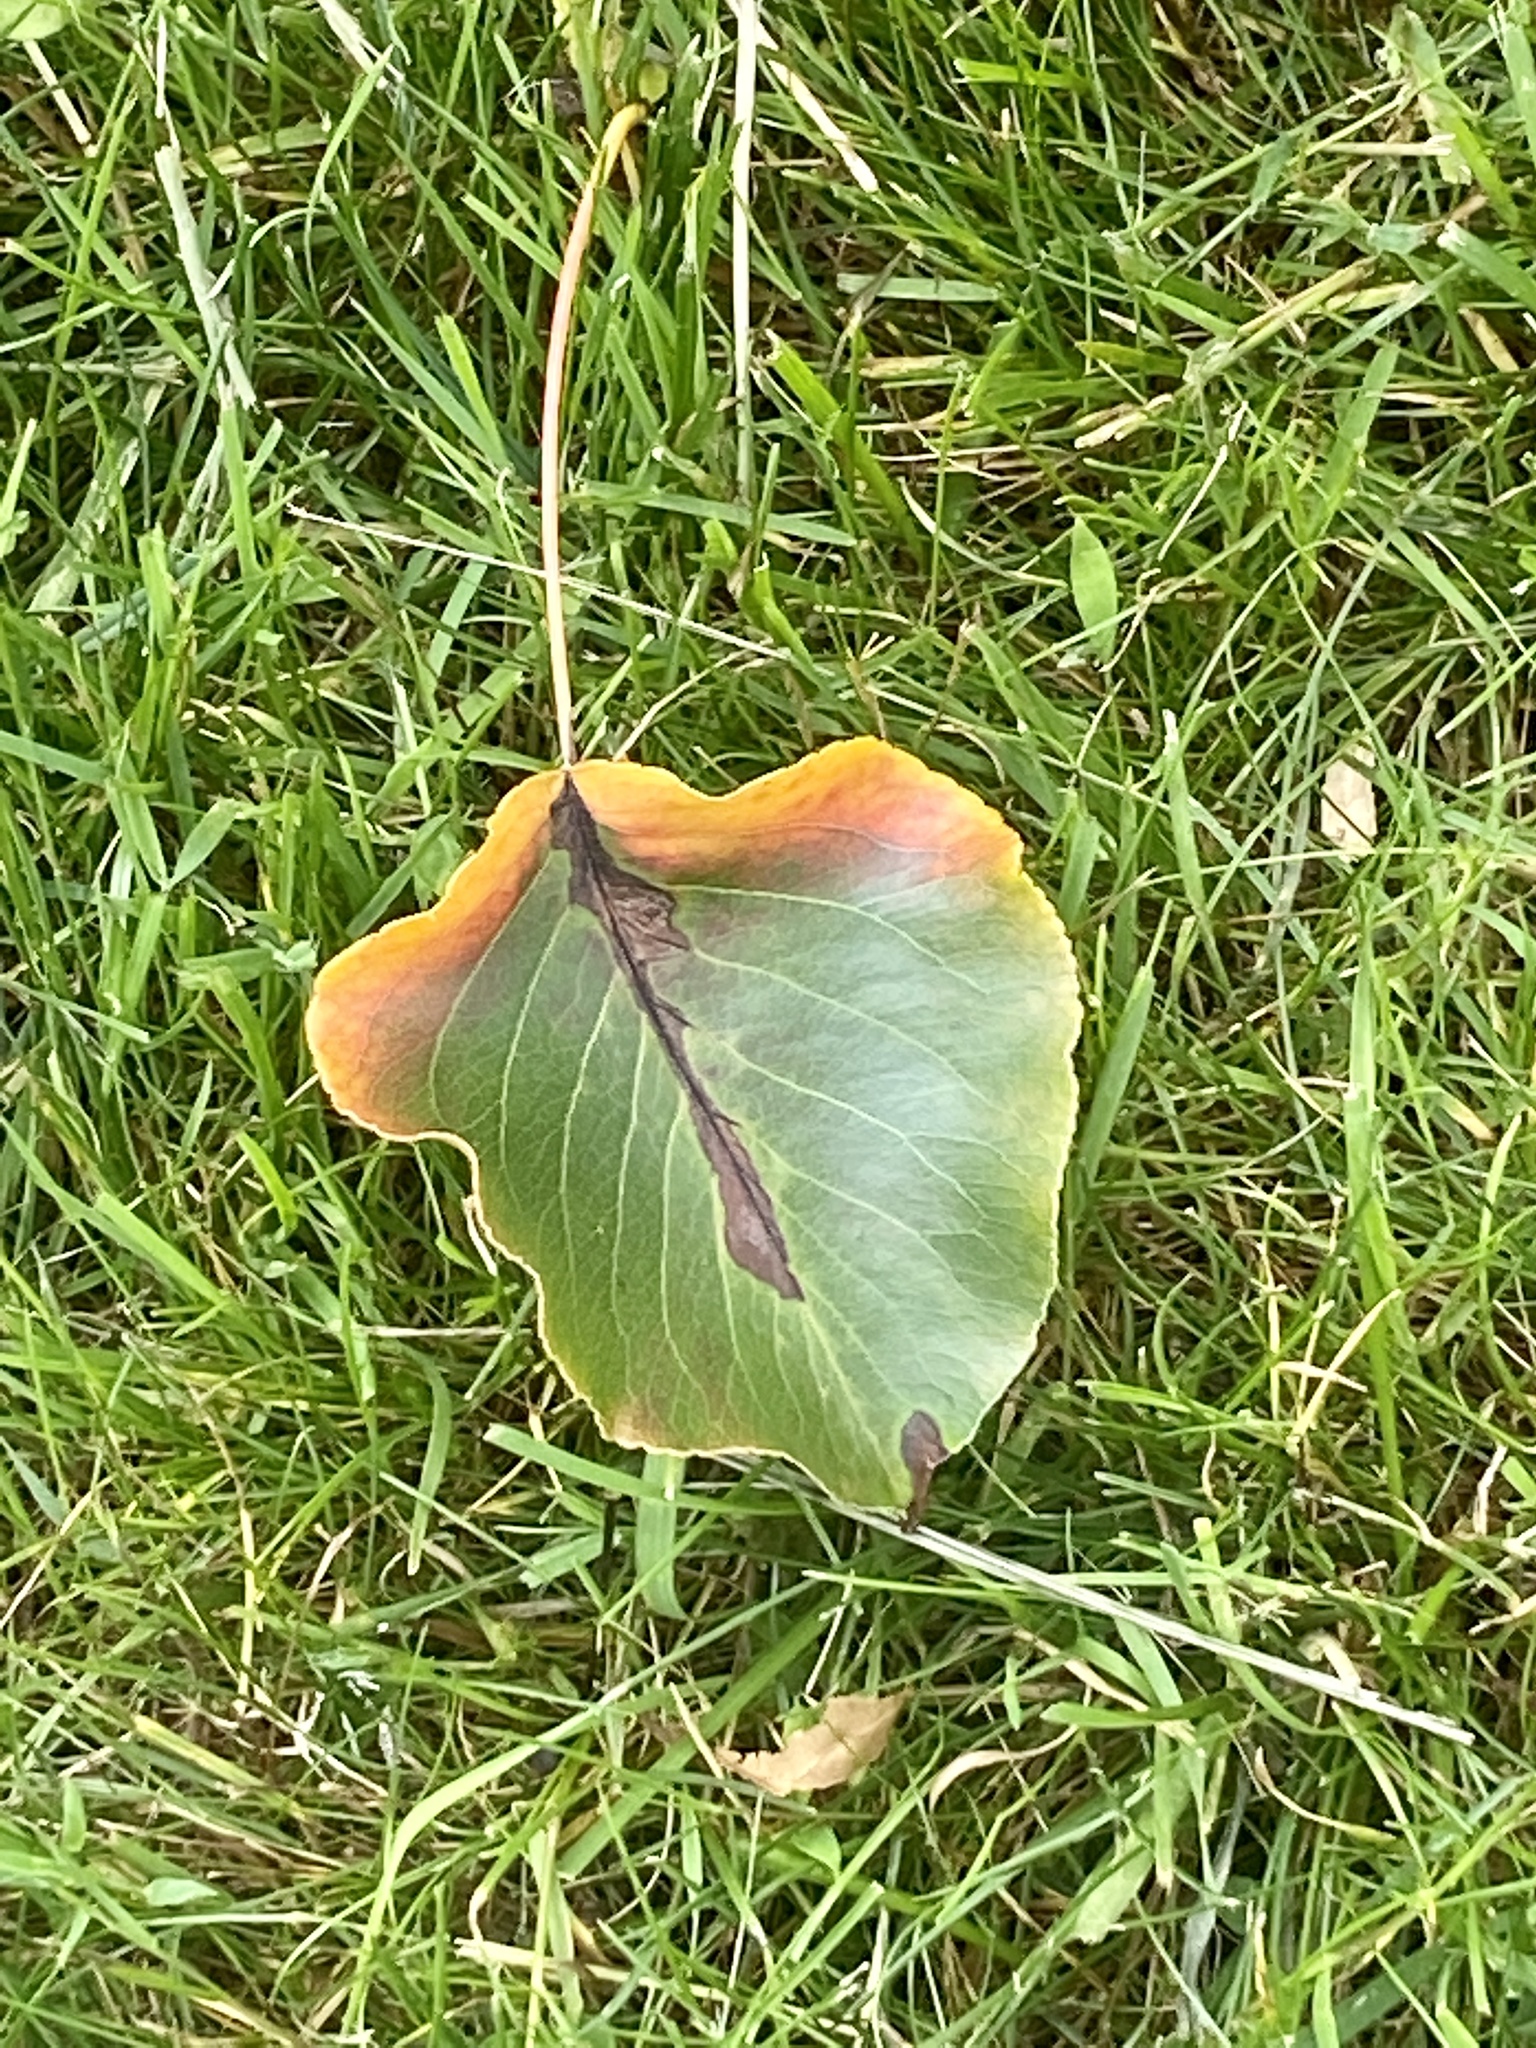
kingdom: Plantae
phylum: Tracheophyta
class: Magnoliopsida
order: Rosales
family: Rosaceae
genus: Pyrus
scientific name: Pyrus calleryana
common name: Callery pear
